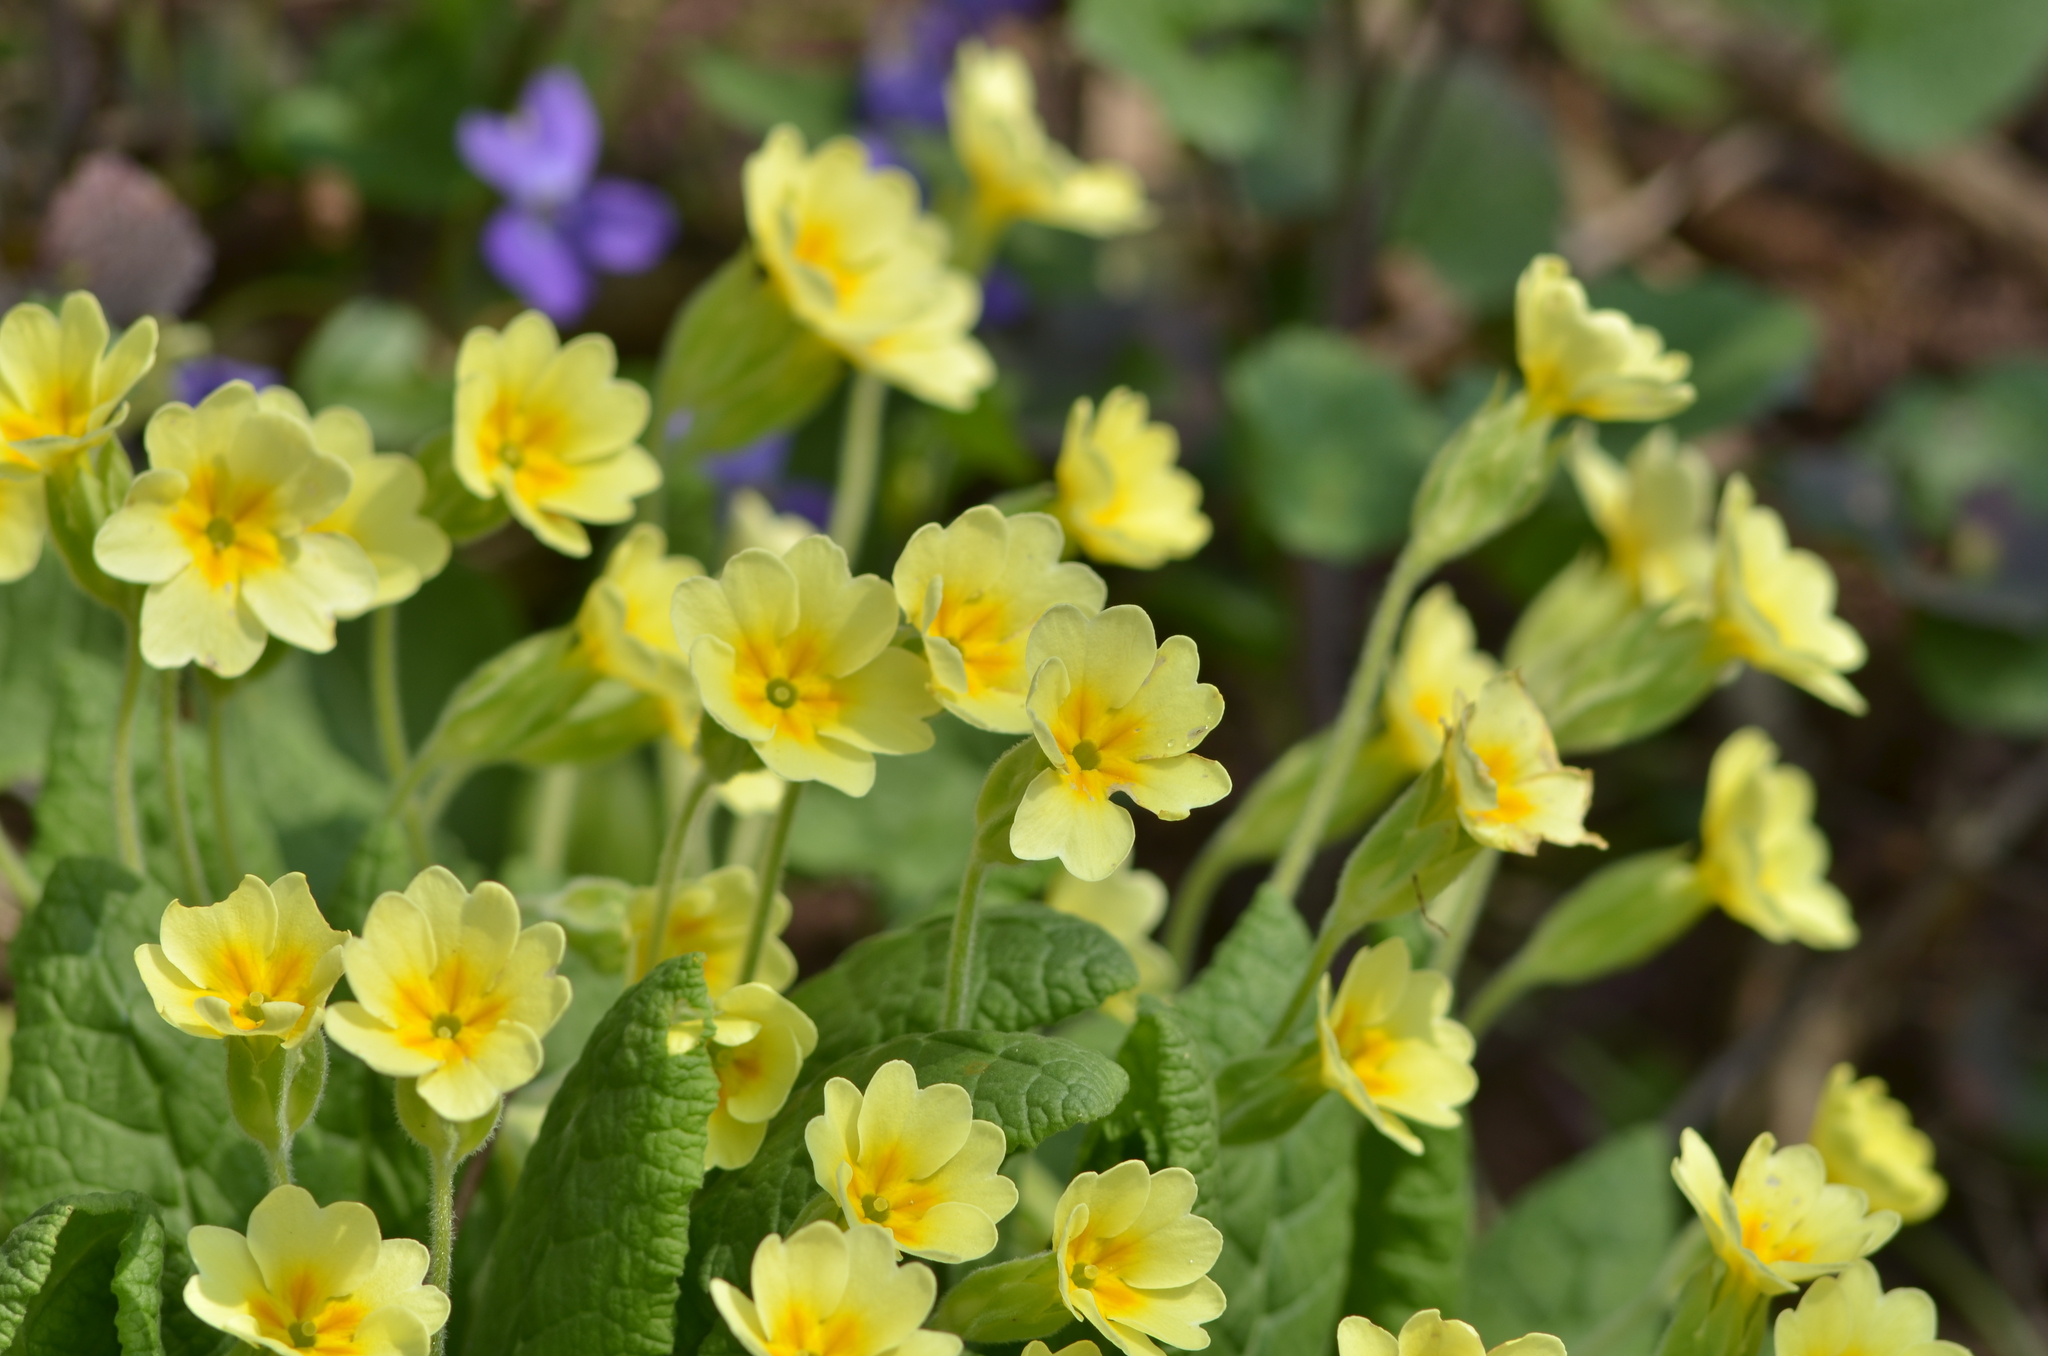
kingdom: Plantae
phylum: Tracheophyta
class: Magnoliopsida
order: Ericales
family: Primulaceae
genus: Primula
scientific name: Primula elatior
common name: Oxlip
